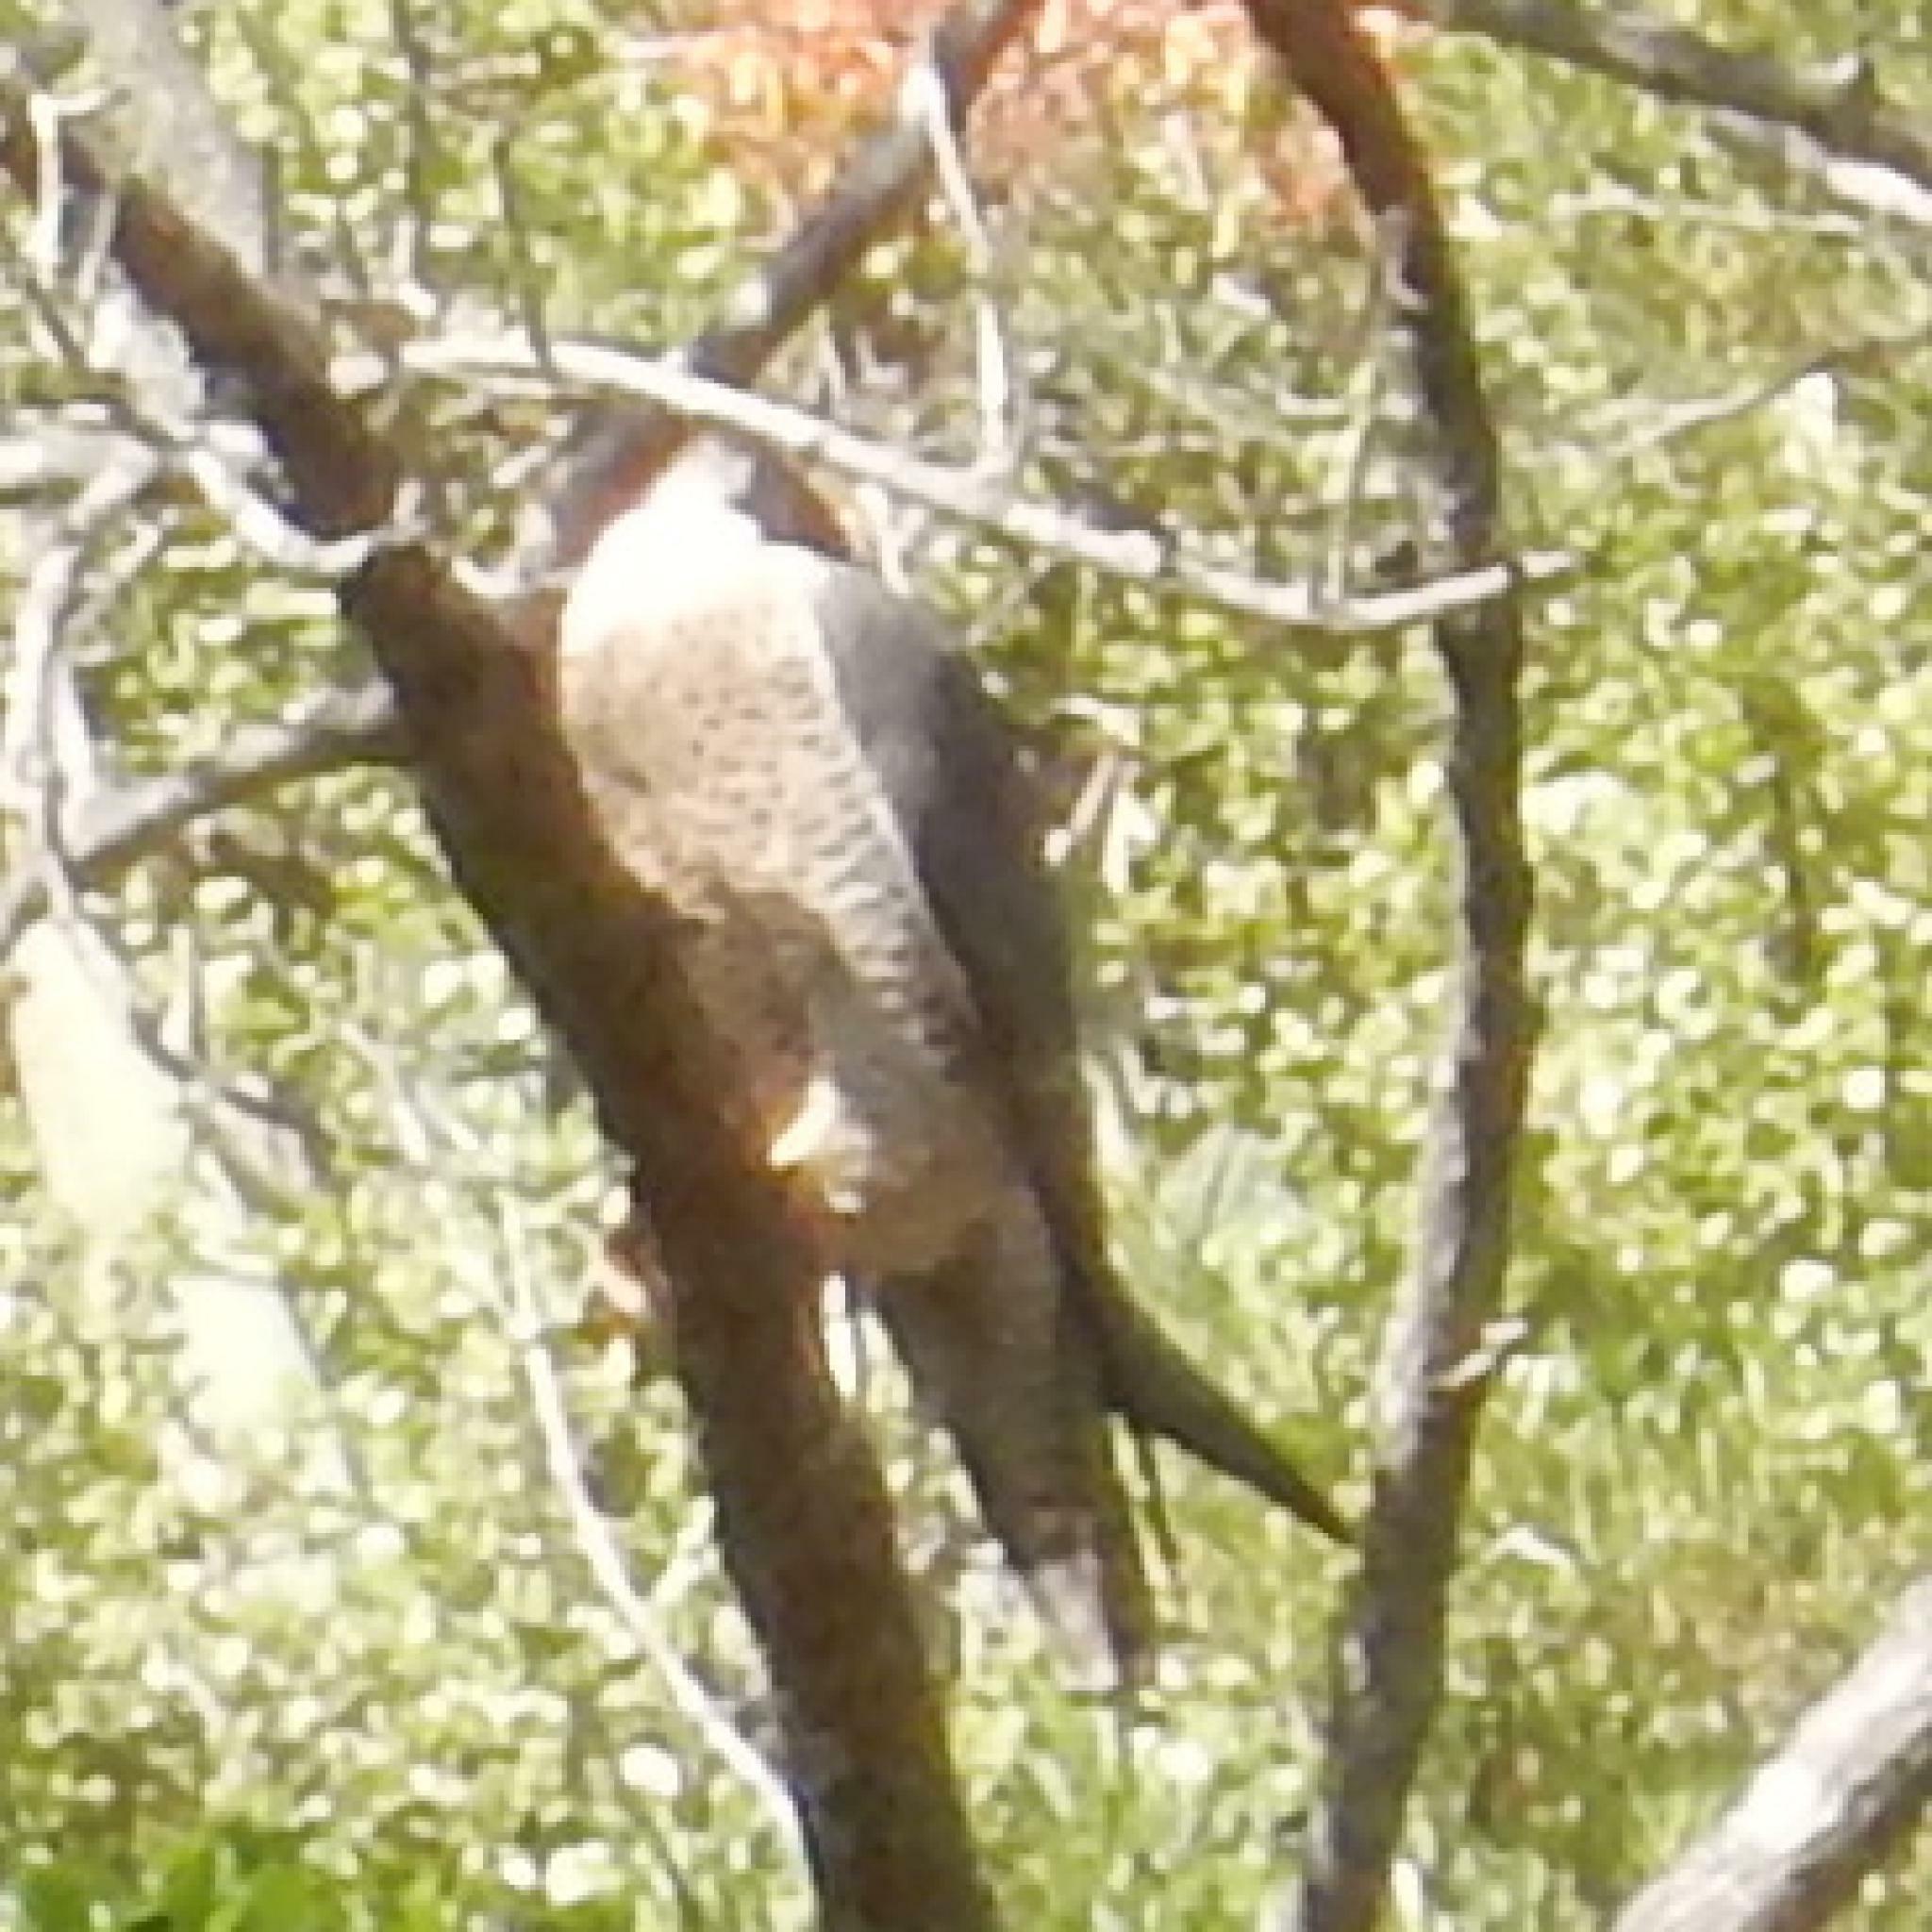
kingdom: Animalia
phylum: Chordata
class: Aves
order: Falconiformes
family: Falconidae
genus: Falco
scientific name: Falco peregrinus
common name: Peregrine falcon
